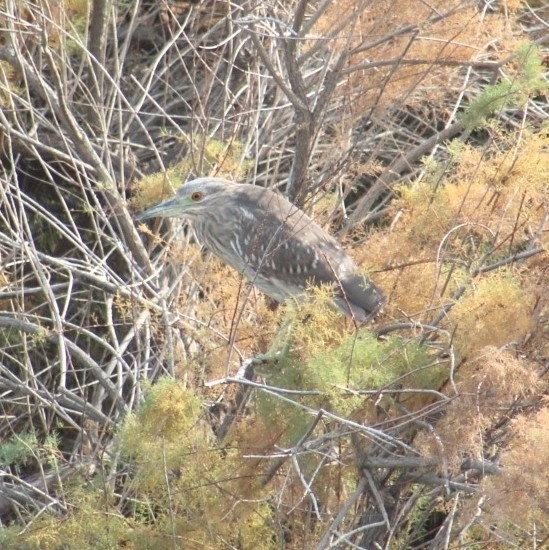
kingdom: Animalia
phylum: Chordata
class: Aves
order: Pelecaniformes
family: Ardeidae
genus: Nycticorax
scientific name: Nycticorax nycticorax
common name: Black-crowned night heron
